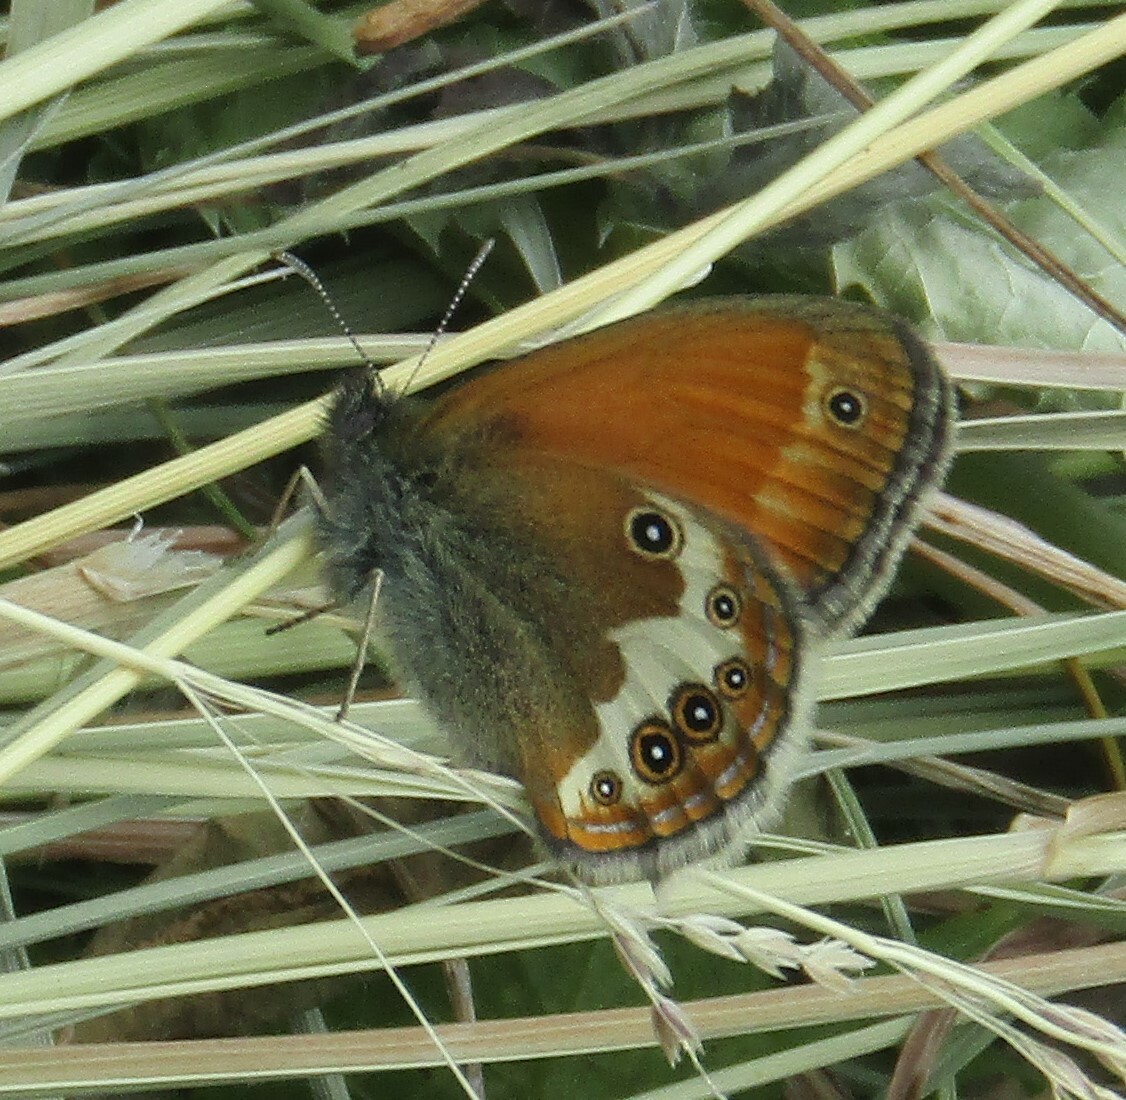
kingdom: Animalia
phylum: Arthropoda
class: Insecta
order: Lepidoptera
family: Nymphalidae
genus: Coenonympha
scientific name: Coenonympha arcania
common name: Pearly heath
